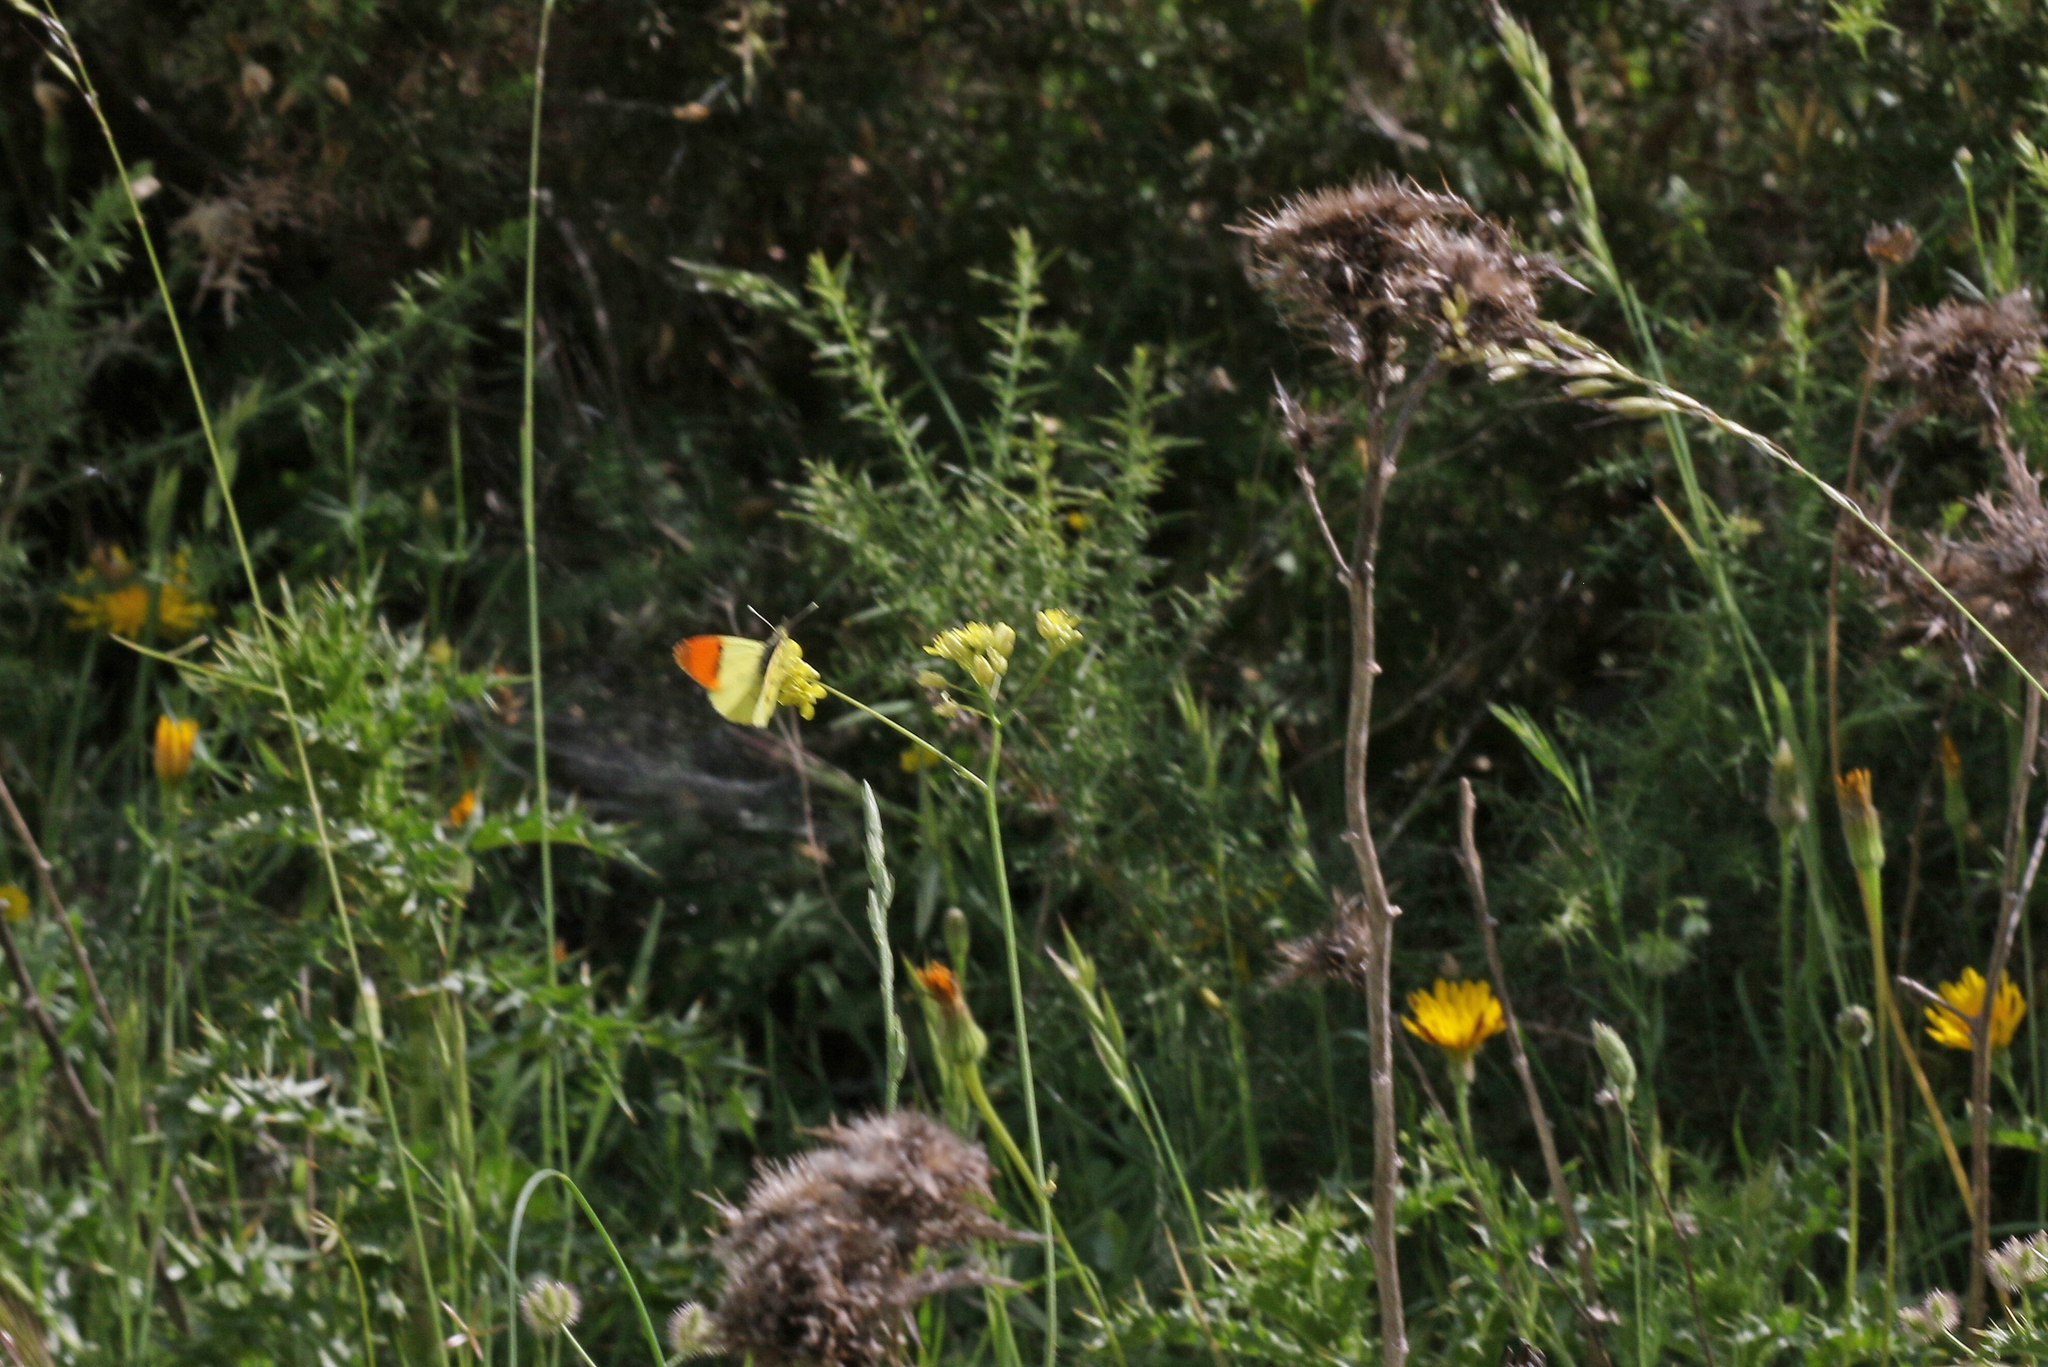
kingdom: Animalia
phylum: Arthropoda
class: Insecta
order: Lepidoptera
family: Pieridae
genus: Anthocharis
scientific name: Anthocharis euphenoides
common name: Provence orange-tip
